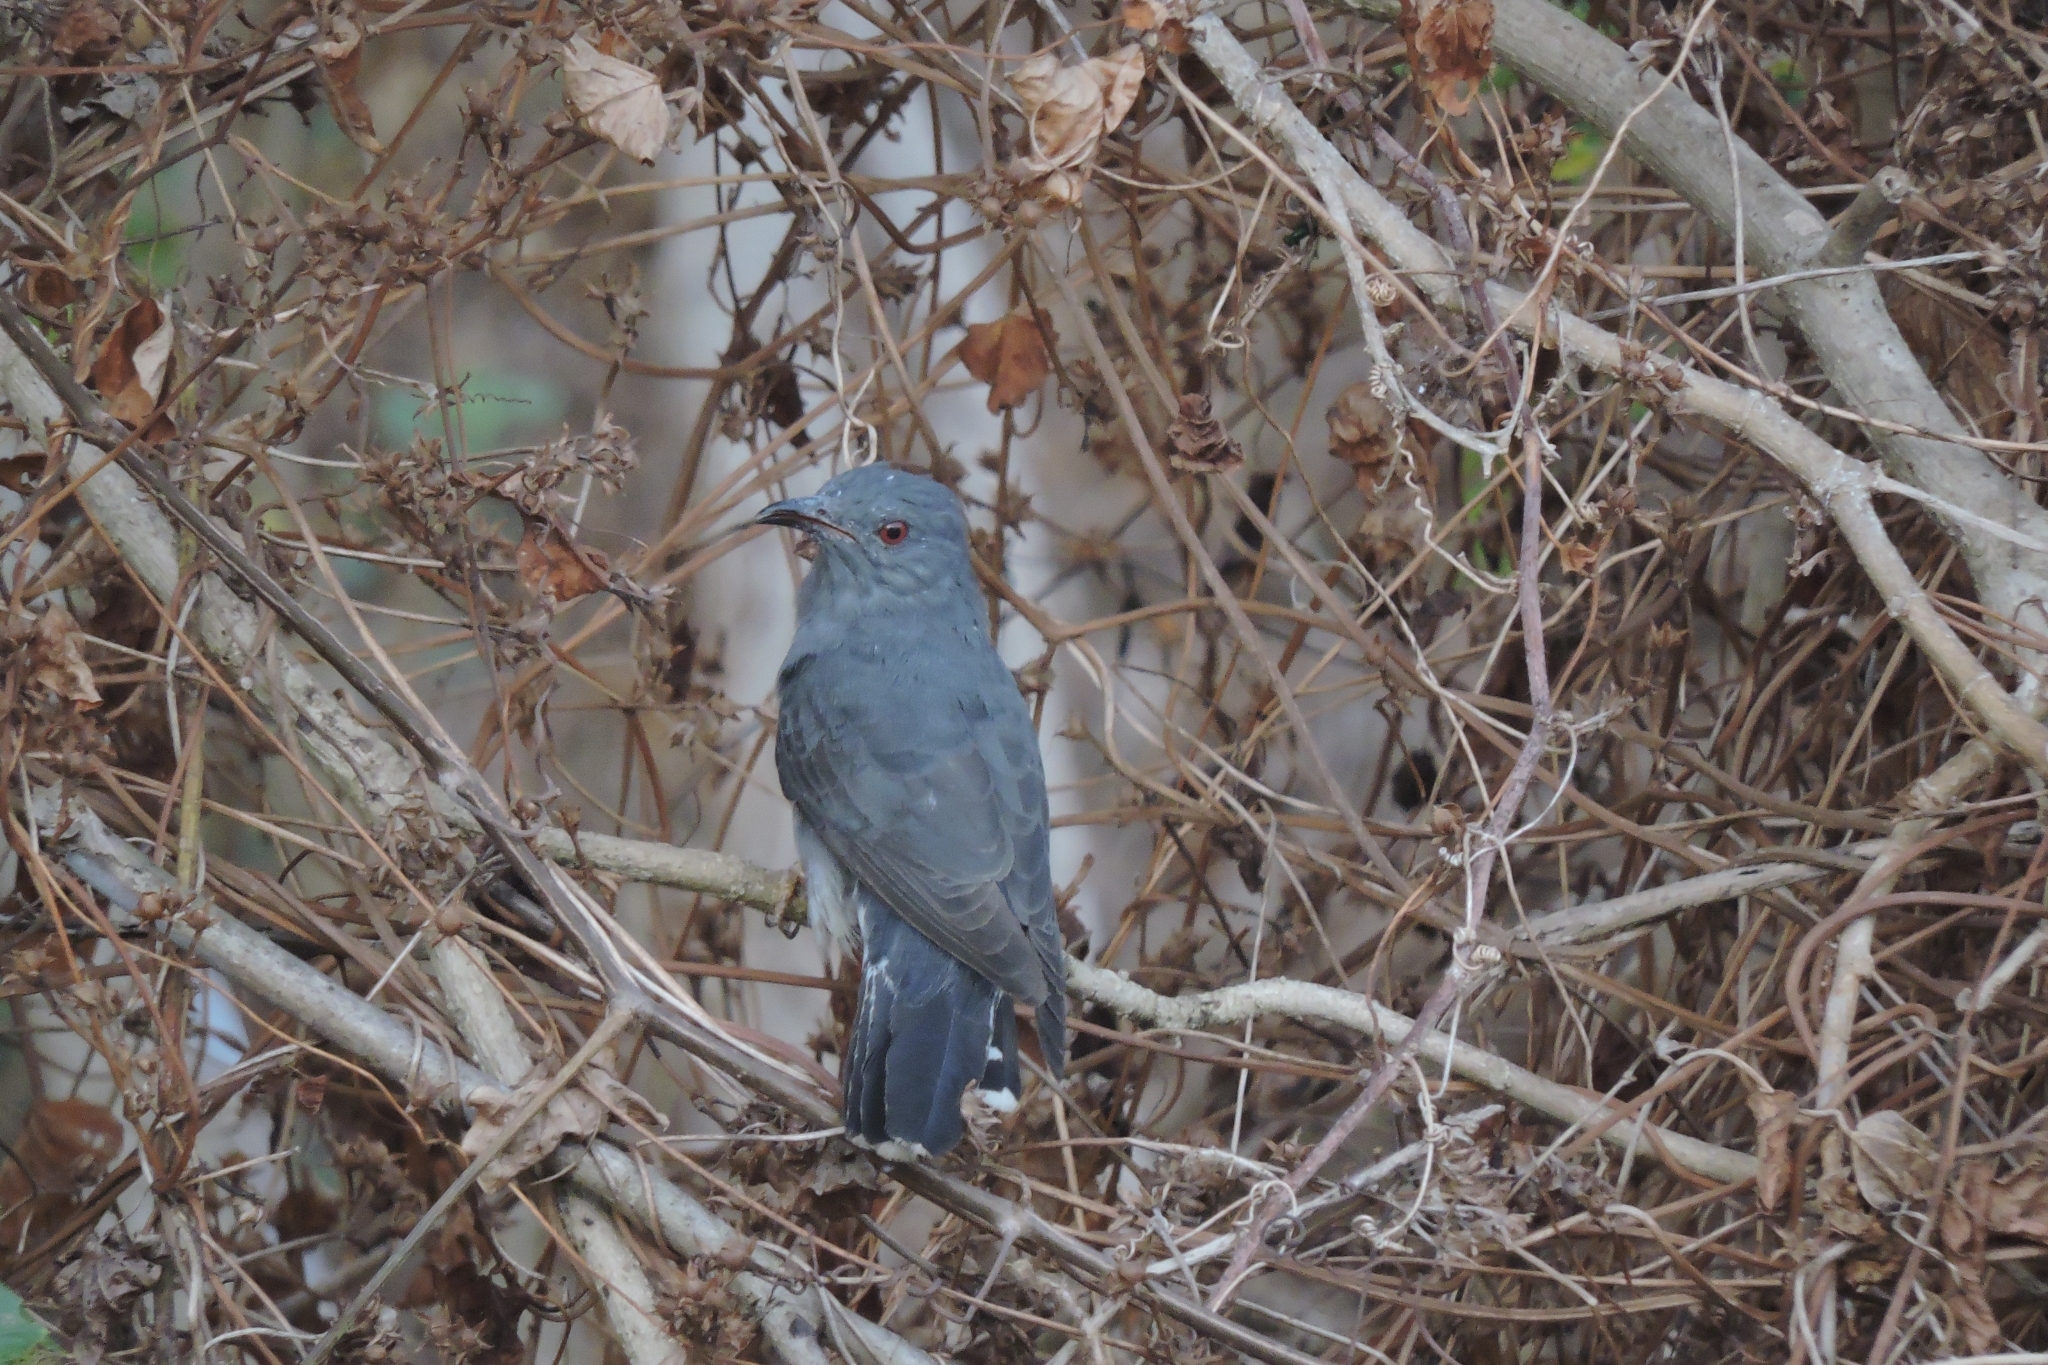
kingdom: Animalia
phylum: Chordata
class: Aves
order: Cuculiformes
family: Cuculidae
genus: Cacomantis
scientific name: Cacomantis passerinus
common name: Grey-bellied cuckoo
